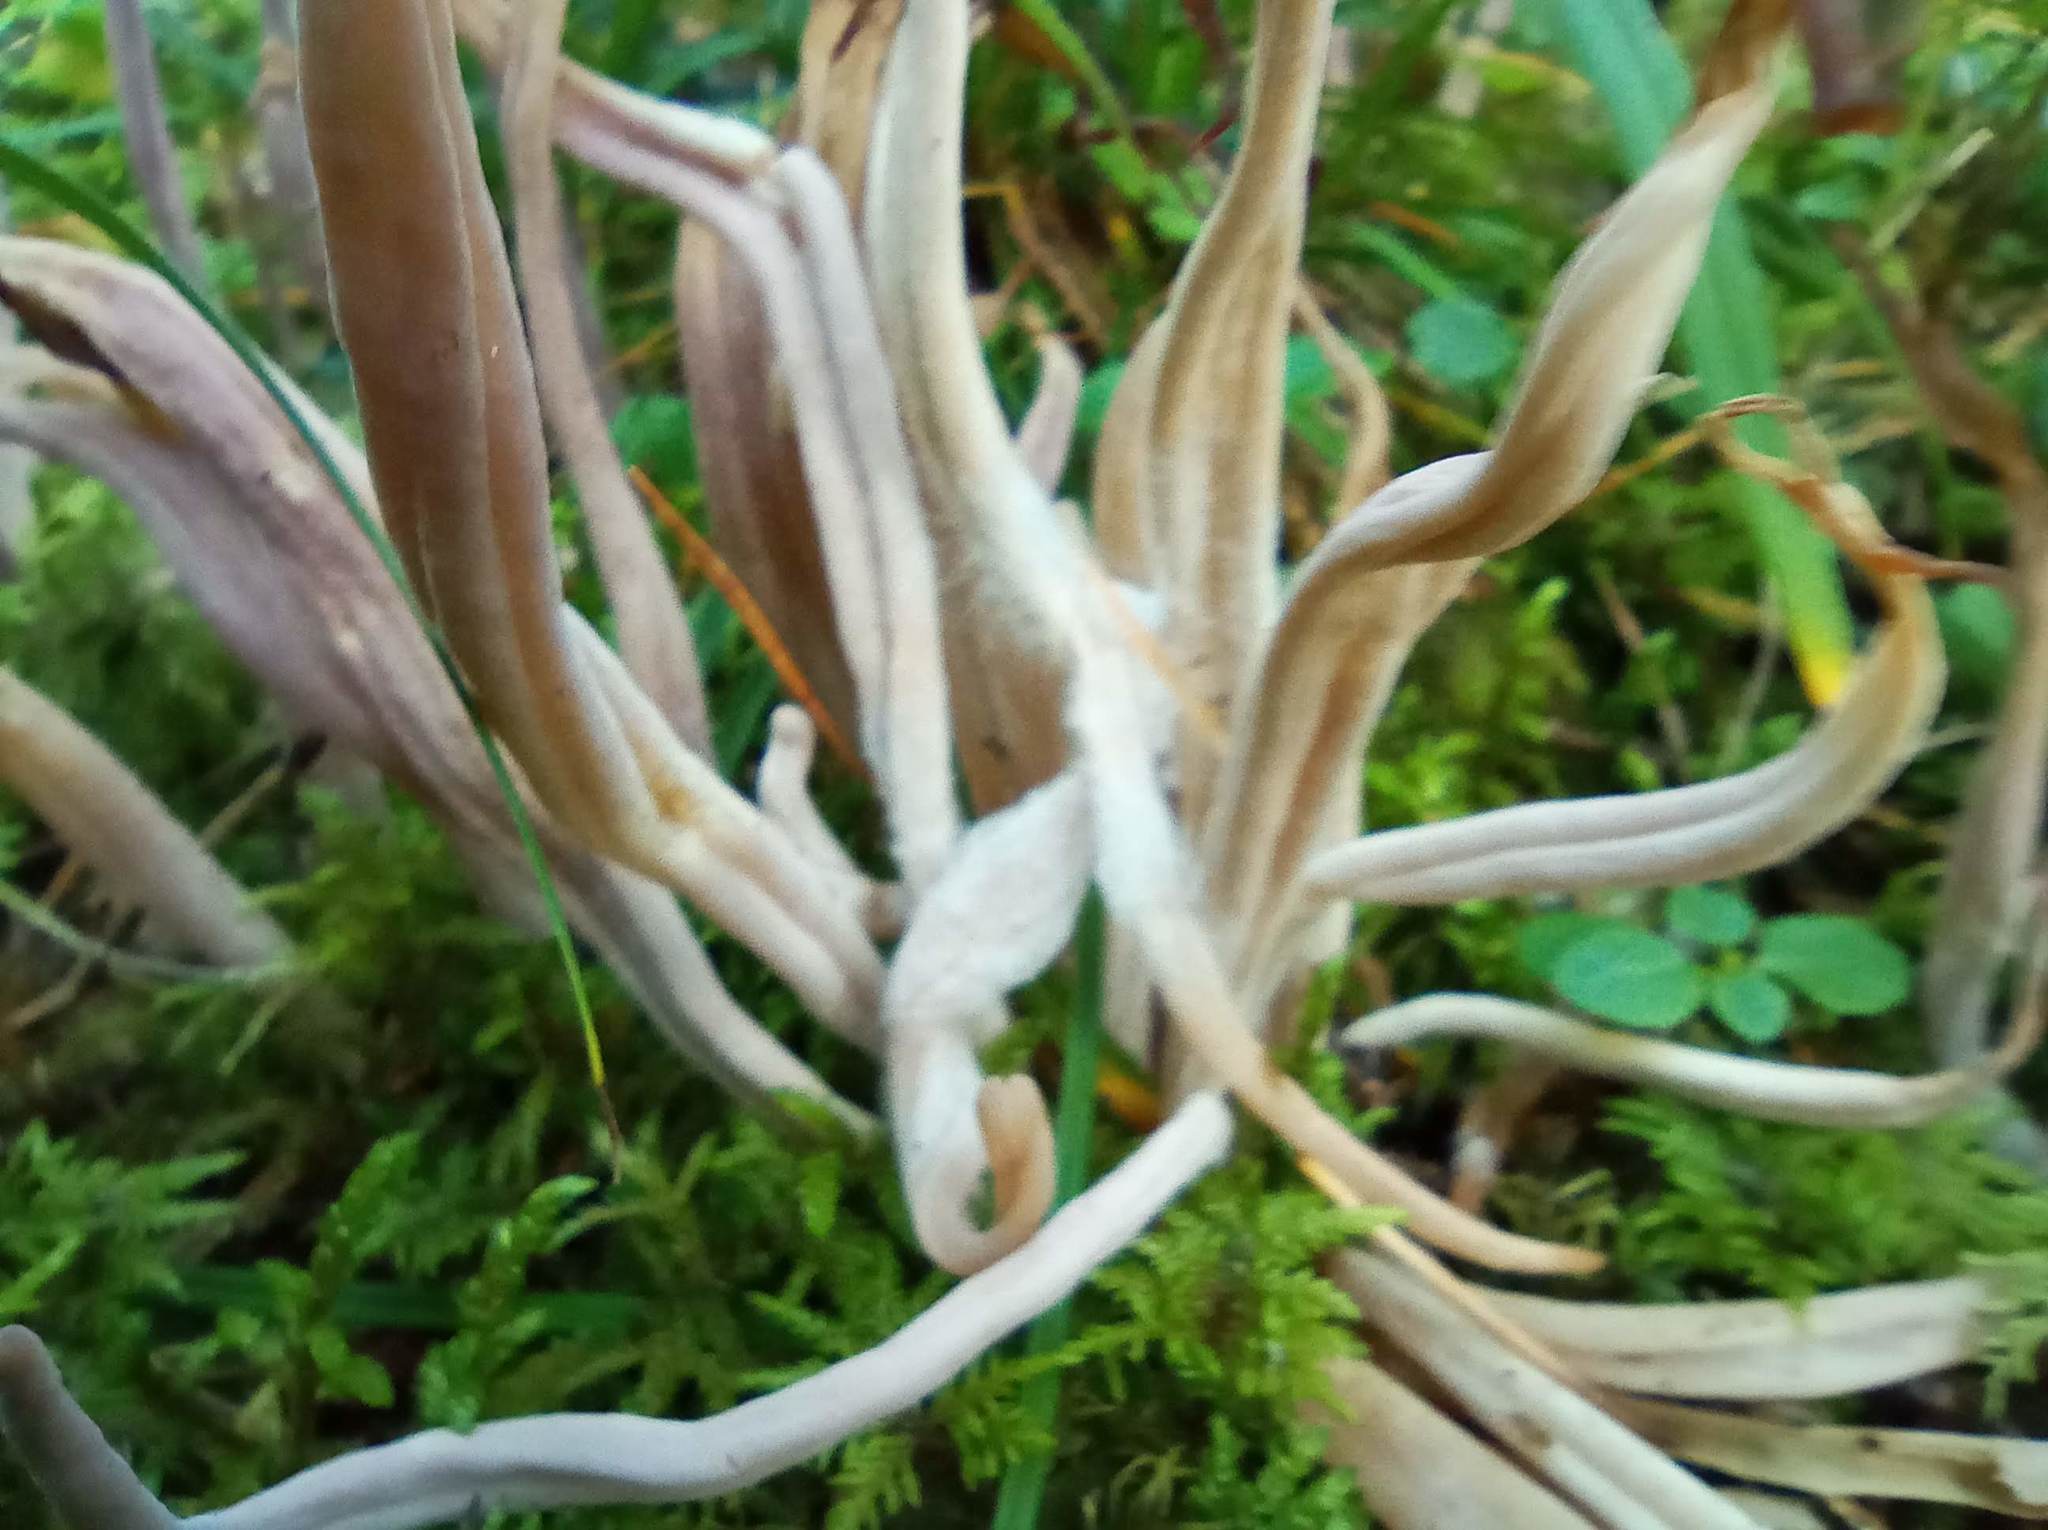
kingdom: Fungi
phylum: Basidiomycota
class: Agaricomycetes
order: Hymenochaetales
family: Rickenellaceae
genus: Alloclavaria
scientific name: Alloclavaria purpurea
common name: Purple spindles
